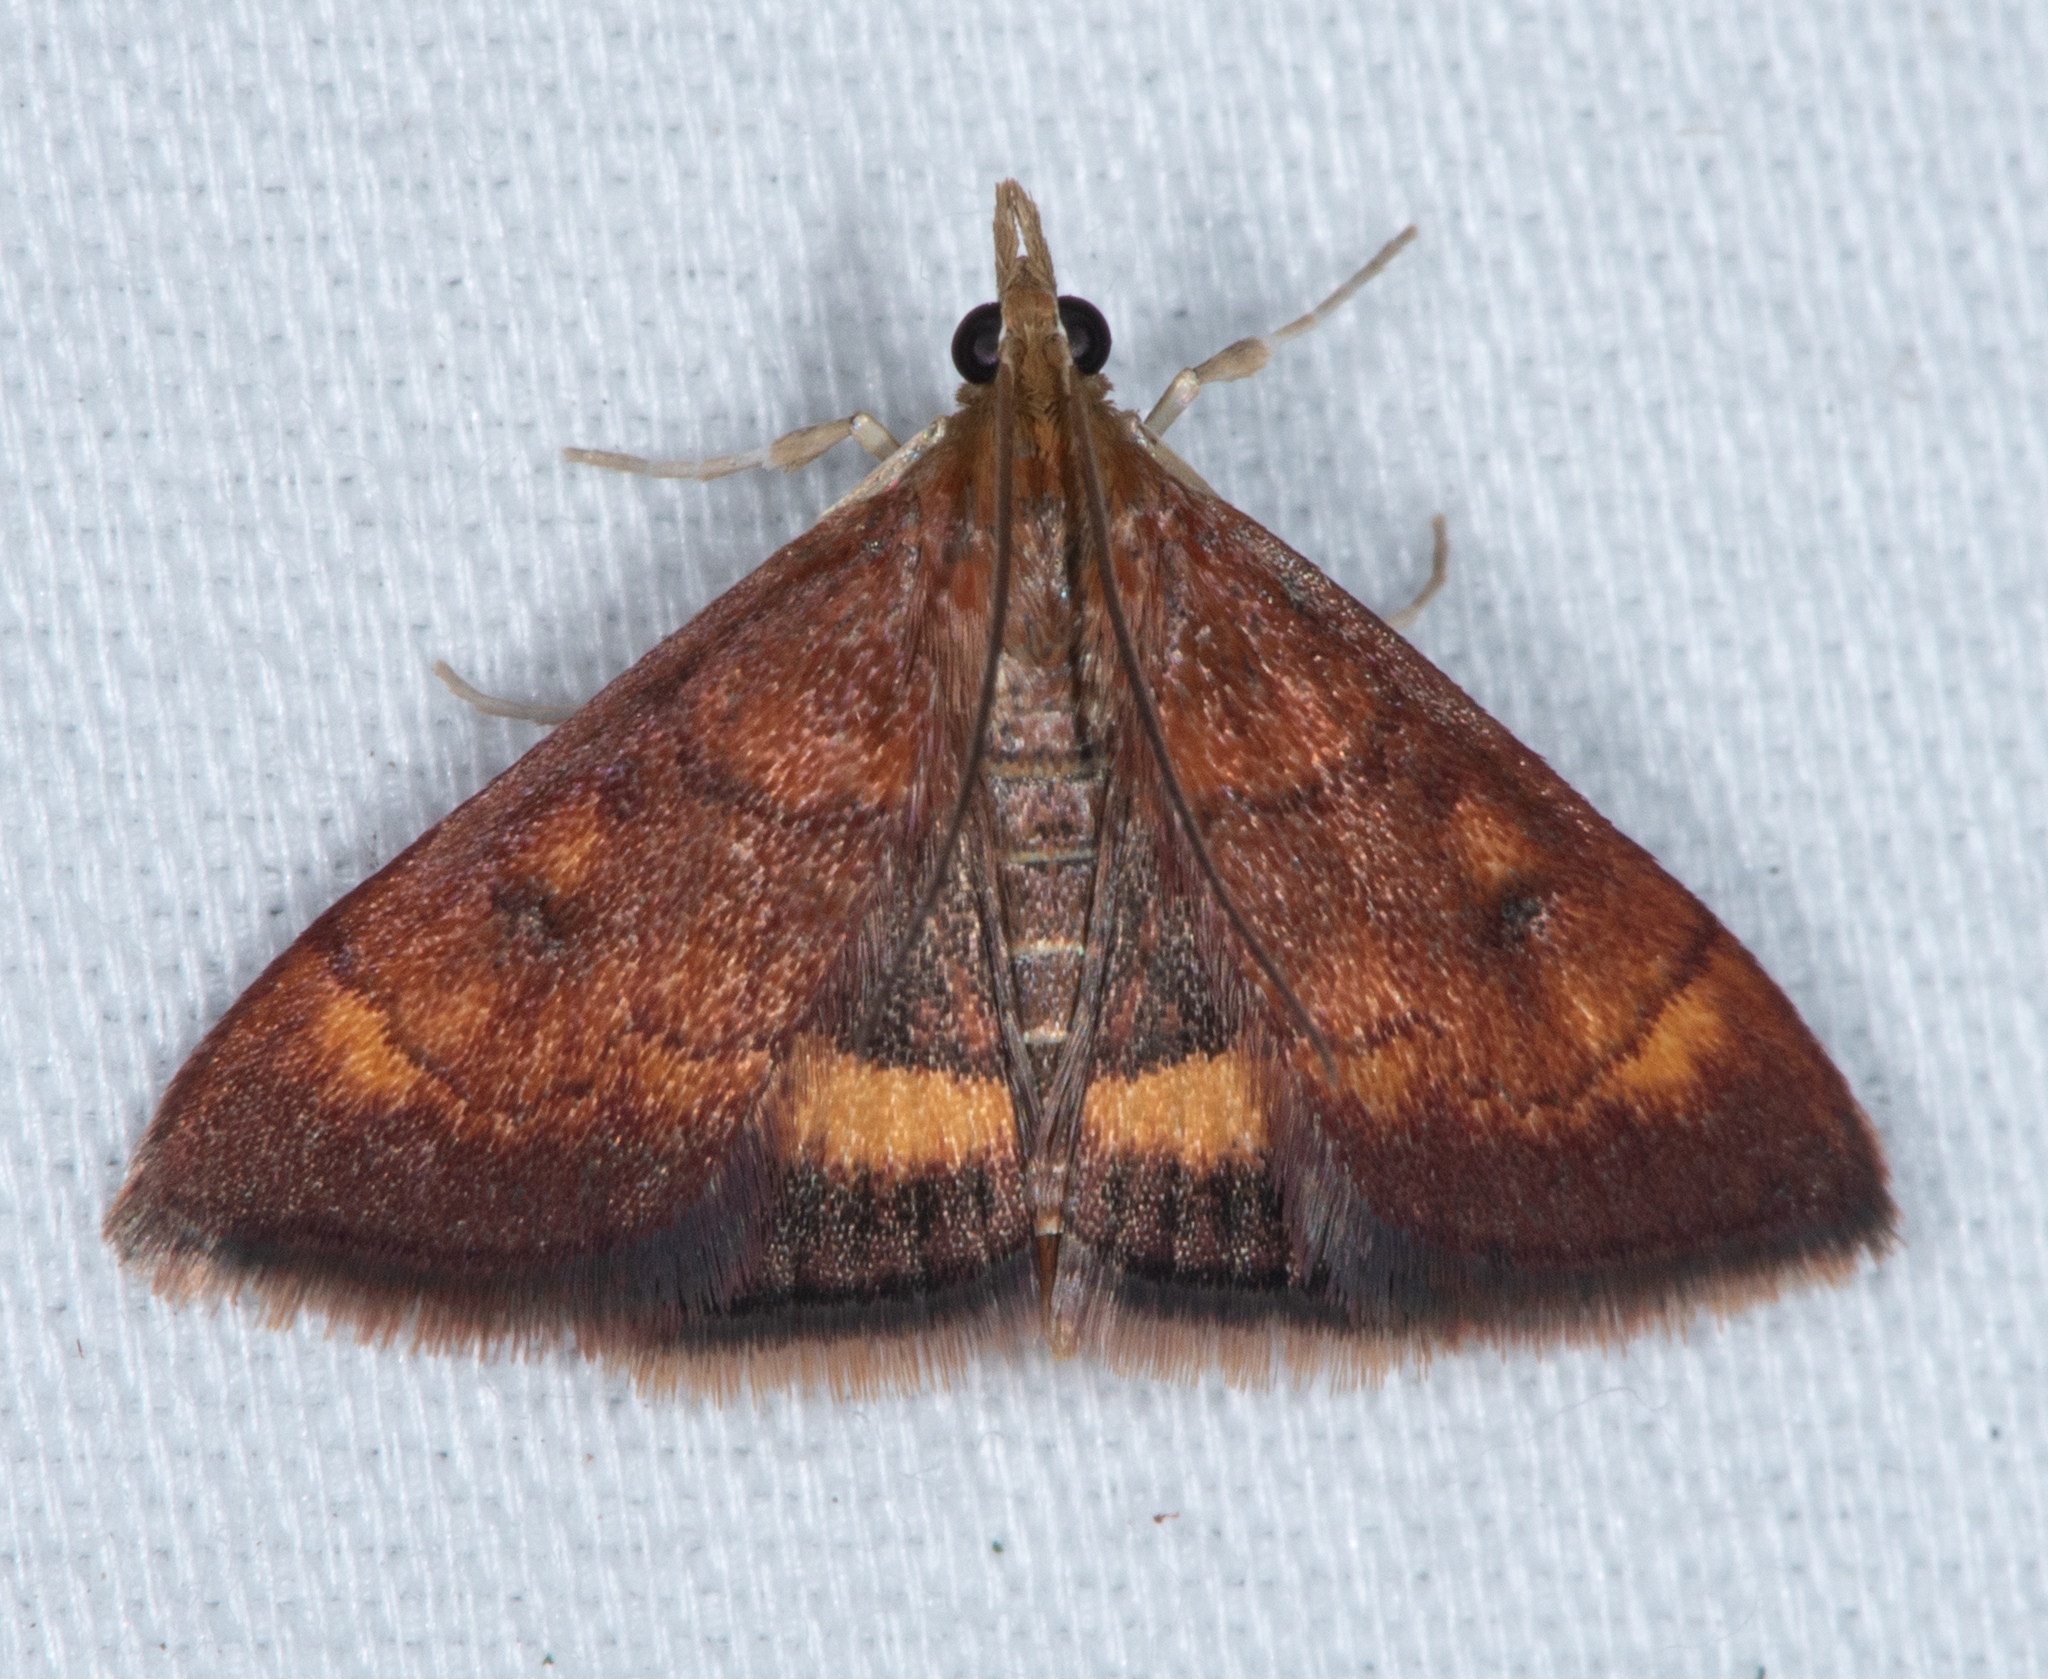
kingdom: Animalia
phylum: Arthropoda
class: Insecta
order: Lepidoptera
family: Crambidae
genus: Pyrausta
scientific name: Pyrausta californicalis
